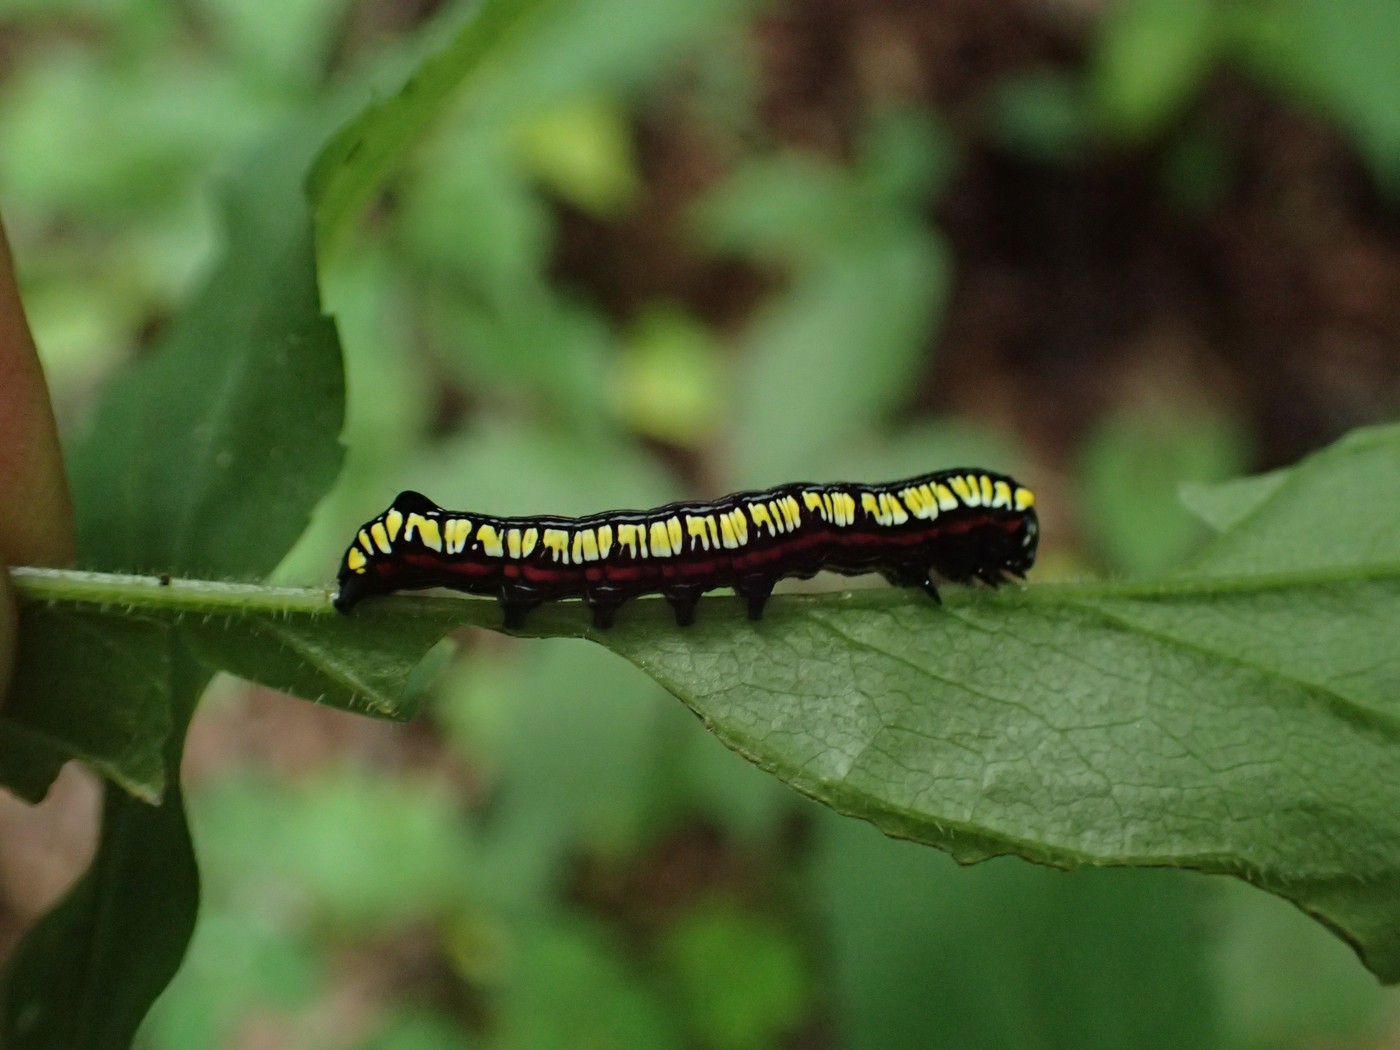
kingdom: Animalia
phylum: Arthropoda
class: Insecta
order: Lepidoptera
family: Noctuidae
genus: Cucullia
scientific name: Cucullia convexipennis
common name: Brown-hooded owlet
